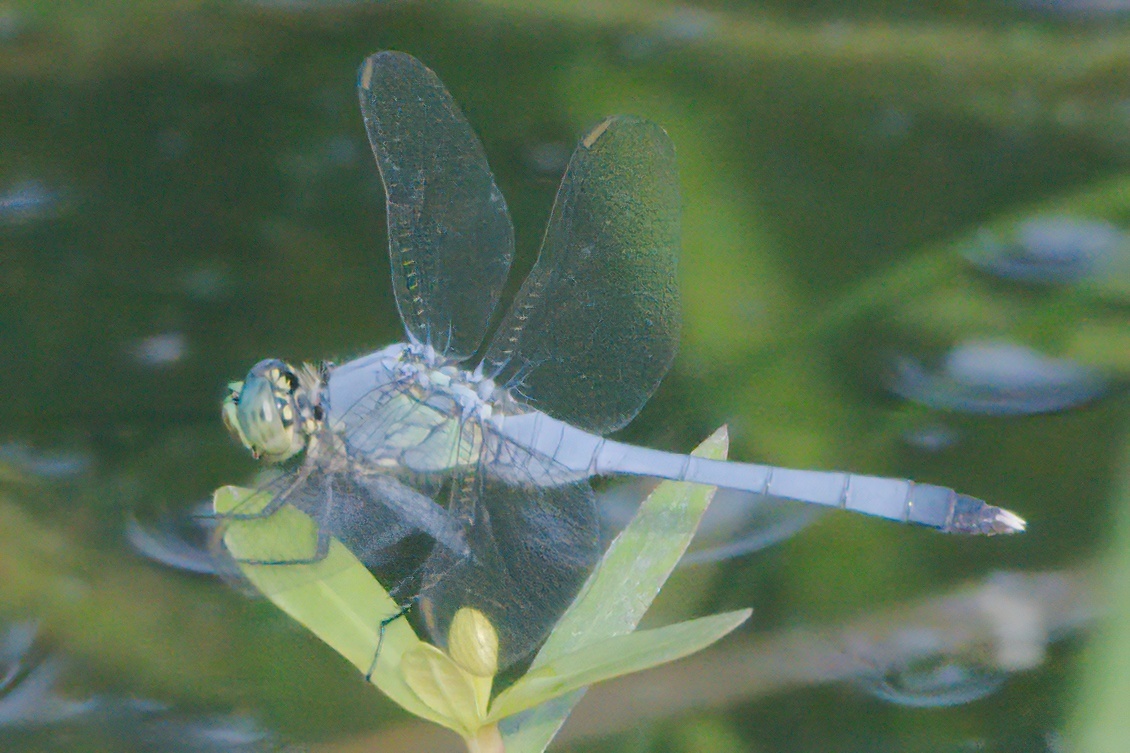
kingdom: Animalia
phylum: Arthropoda
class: Insecta
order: Odonata
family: Libellulidae
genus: Erythemis
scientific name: Erythemis simplicicollis
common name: Eastern pondhawk
